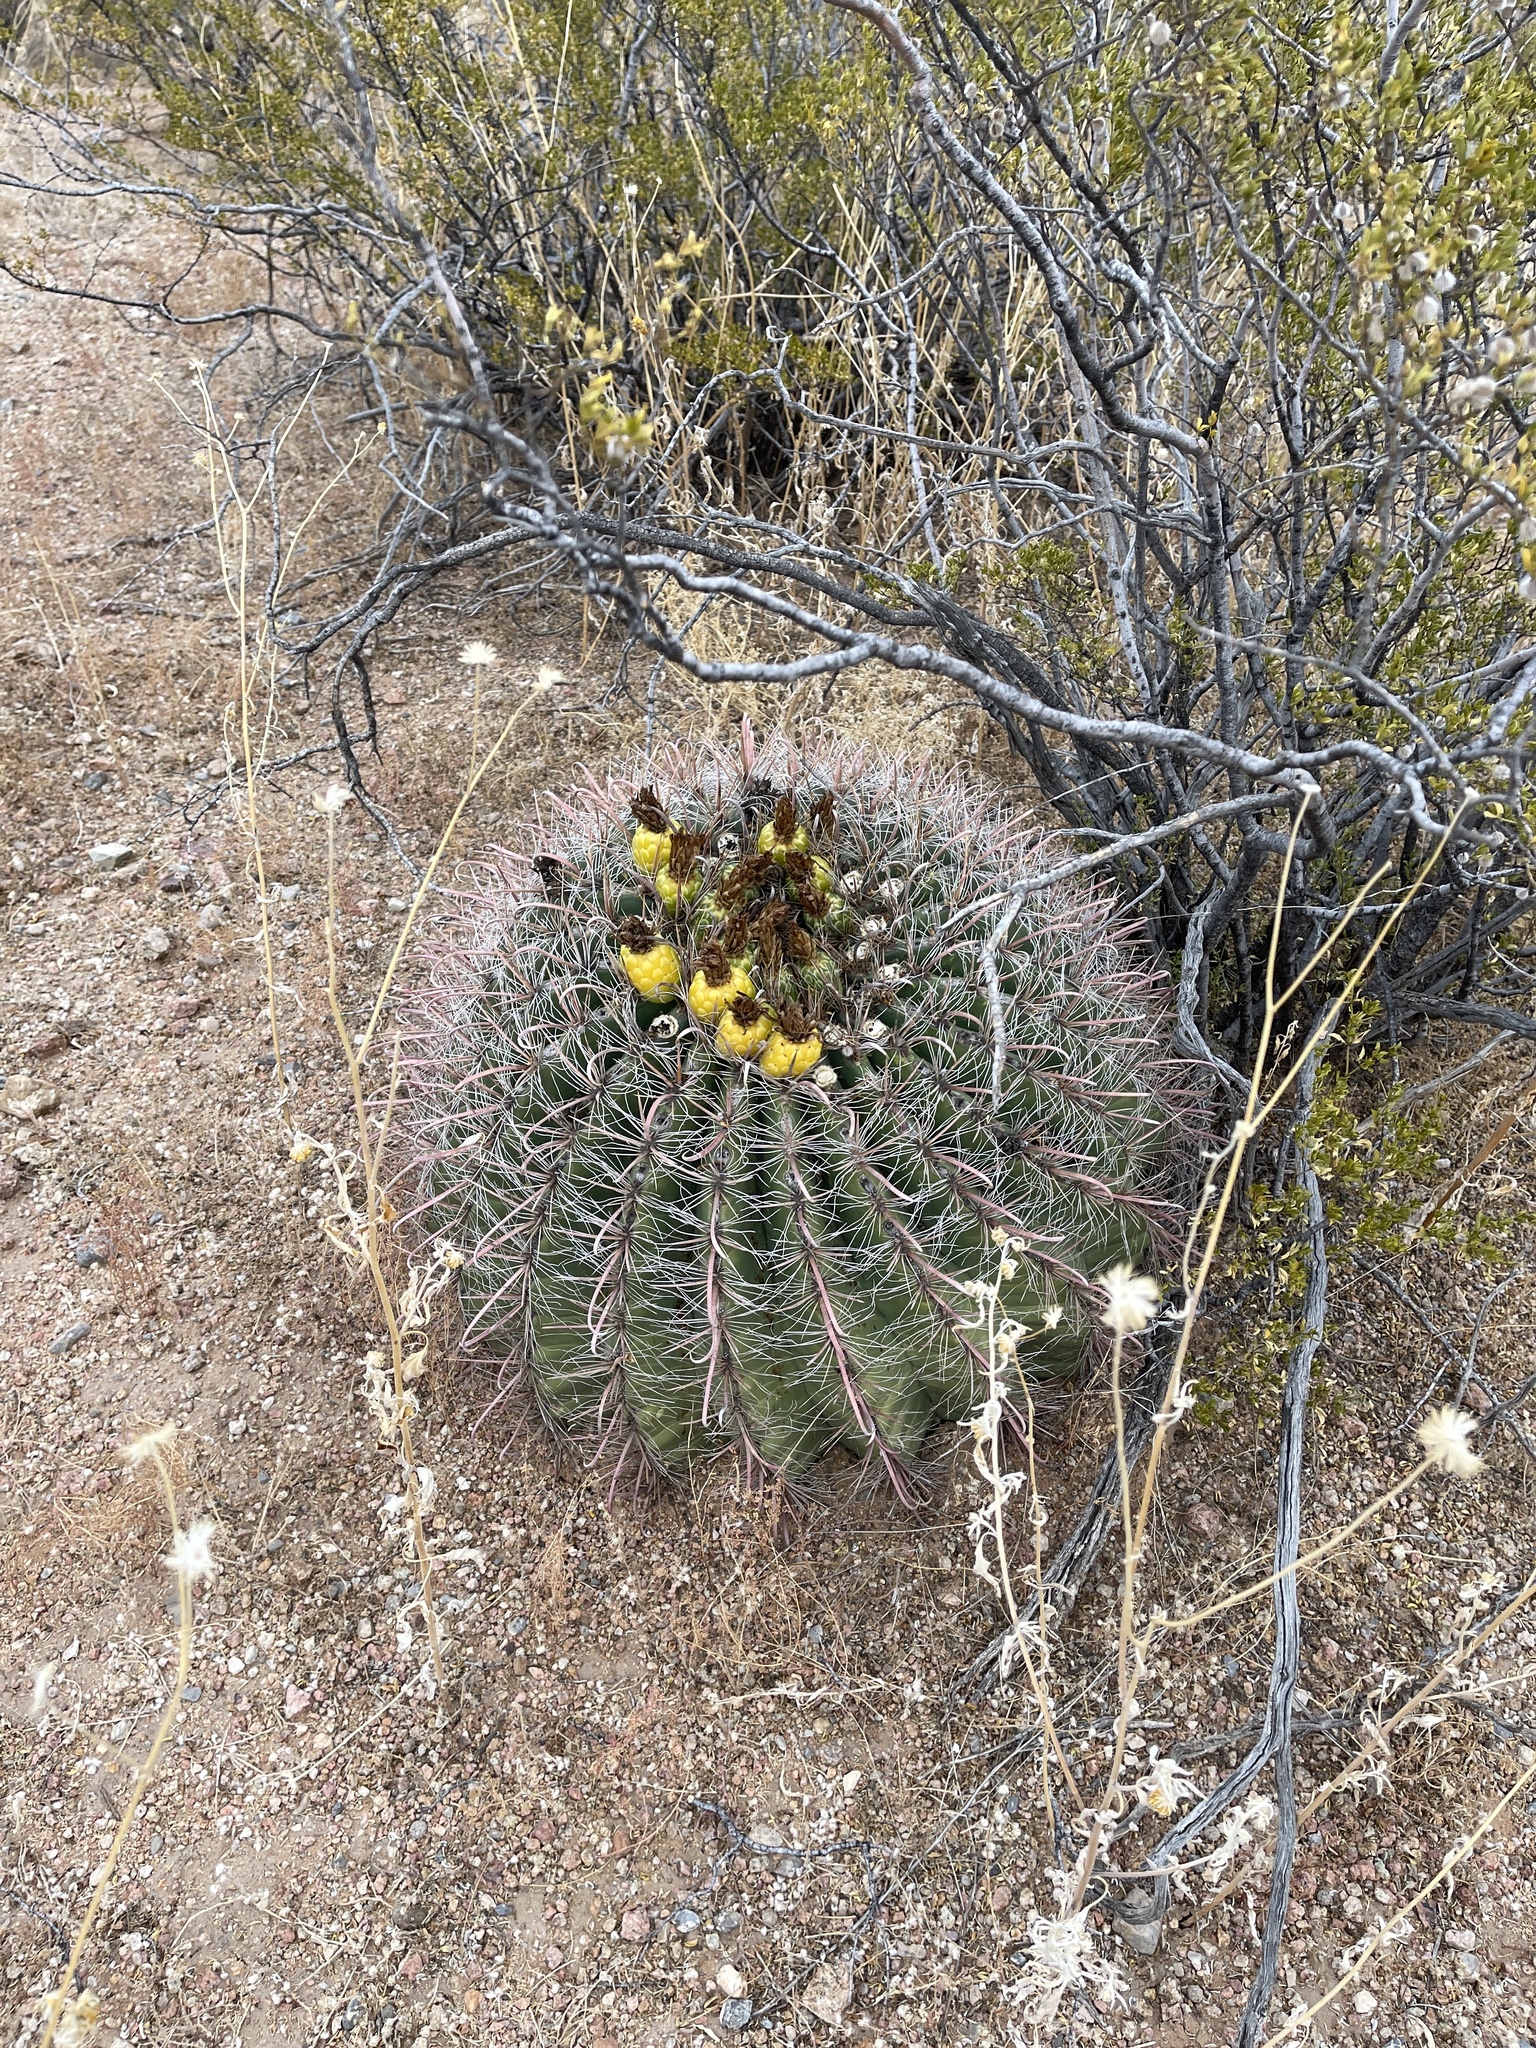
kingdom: Plantae
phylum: Tracheophyta
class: Magnoliopsida
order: Caryophyllales
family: Cactaceae
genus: Ferocactus
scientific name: Ferocactus wislizeni
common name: Candy barrel cactus
